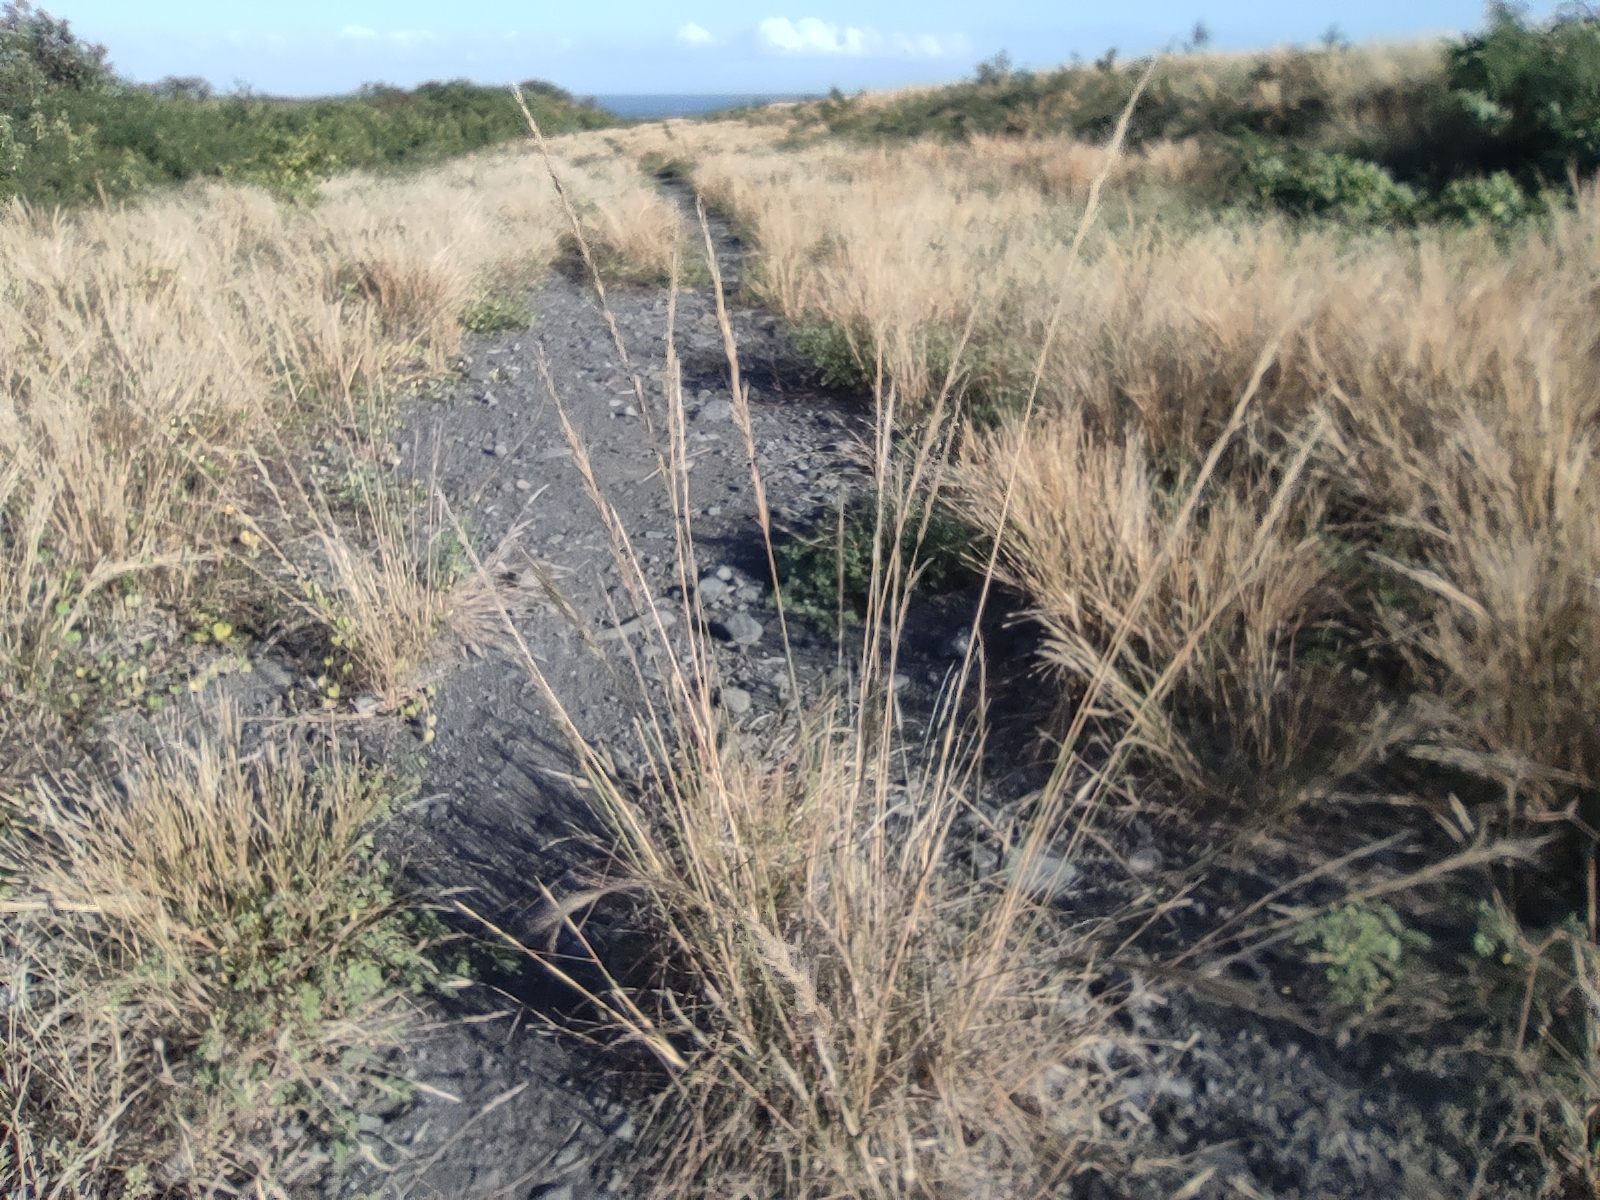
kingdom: Plantae
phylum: Tracheophyta
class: Liliopsida
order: Poales
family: Poaceae
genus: Aristida
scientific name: Aristida setacea
